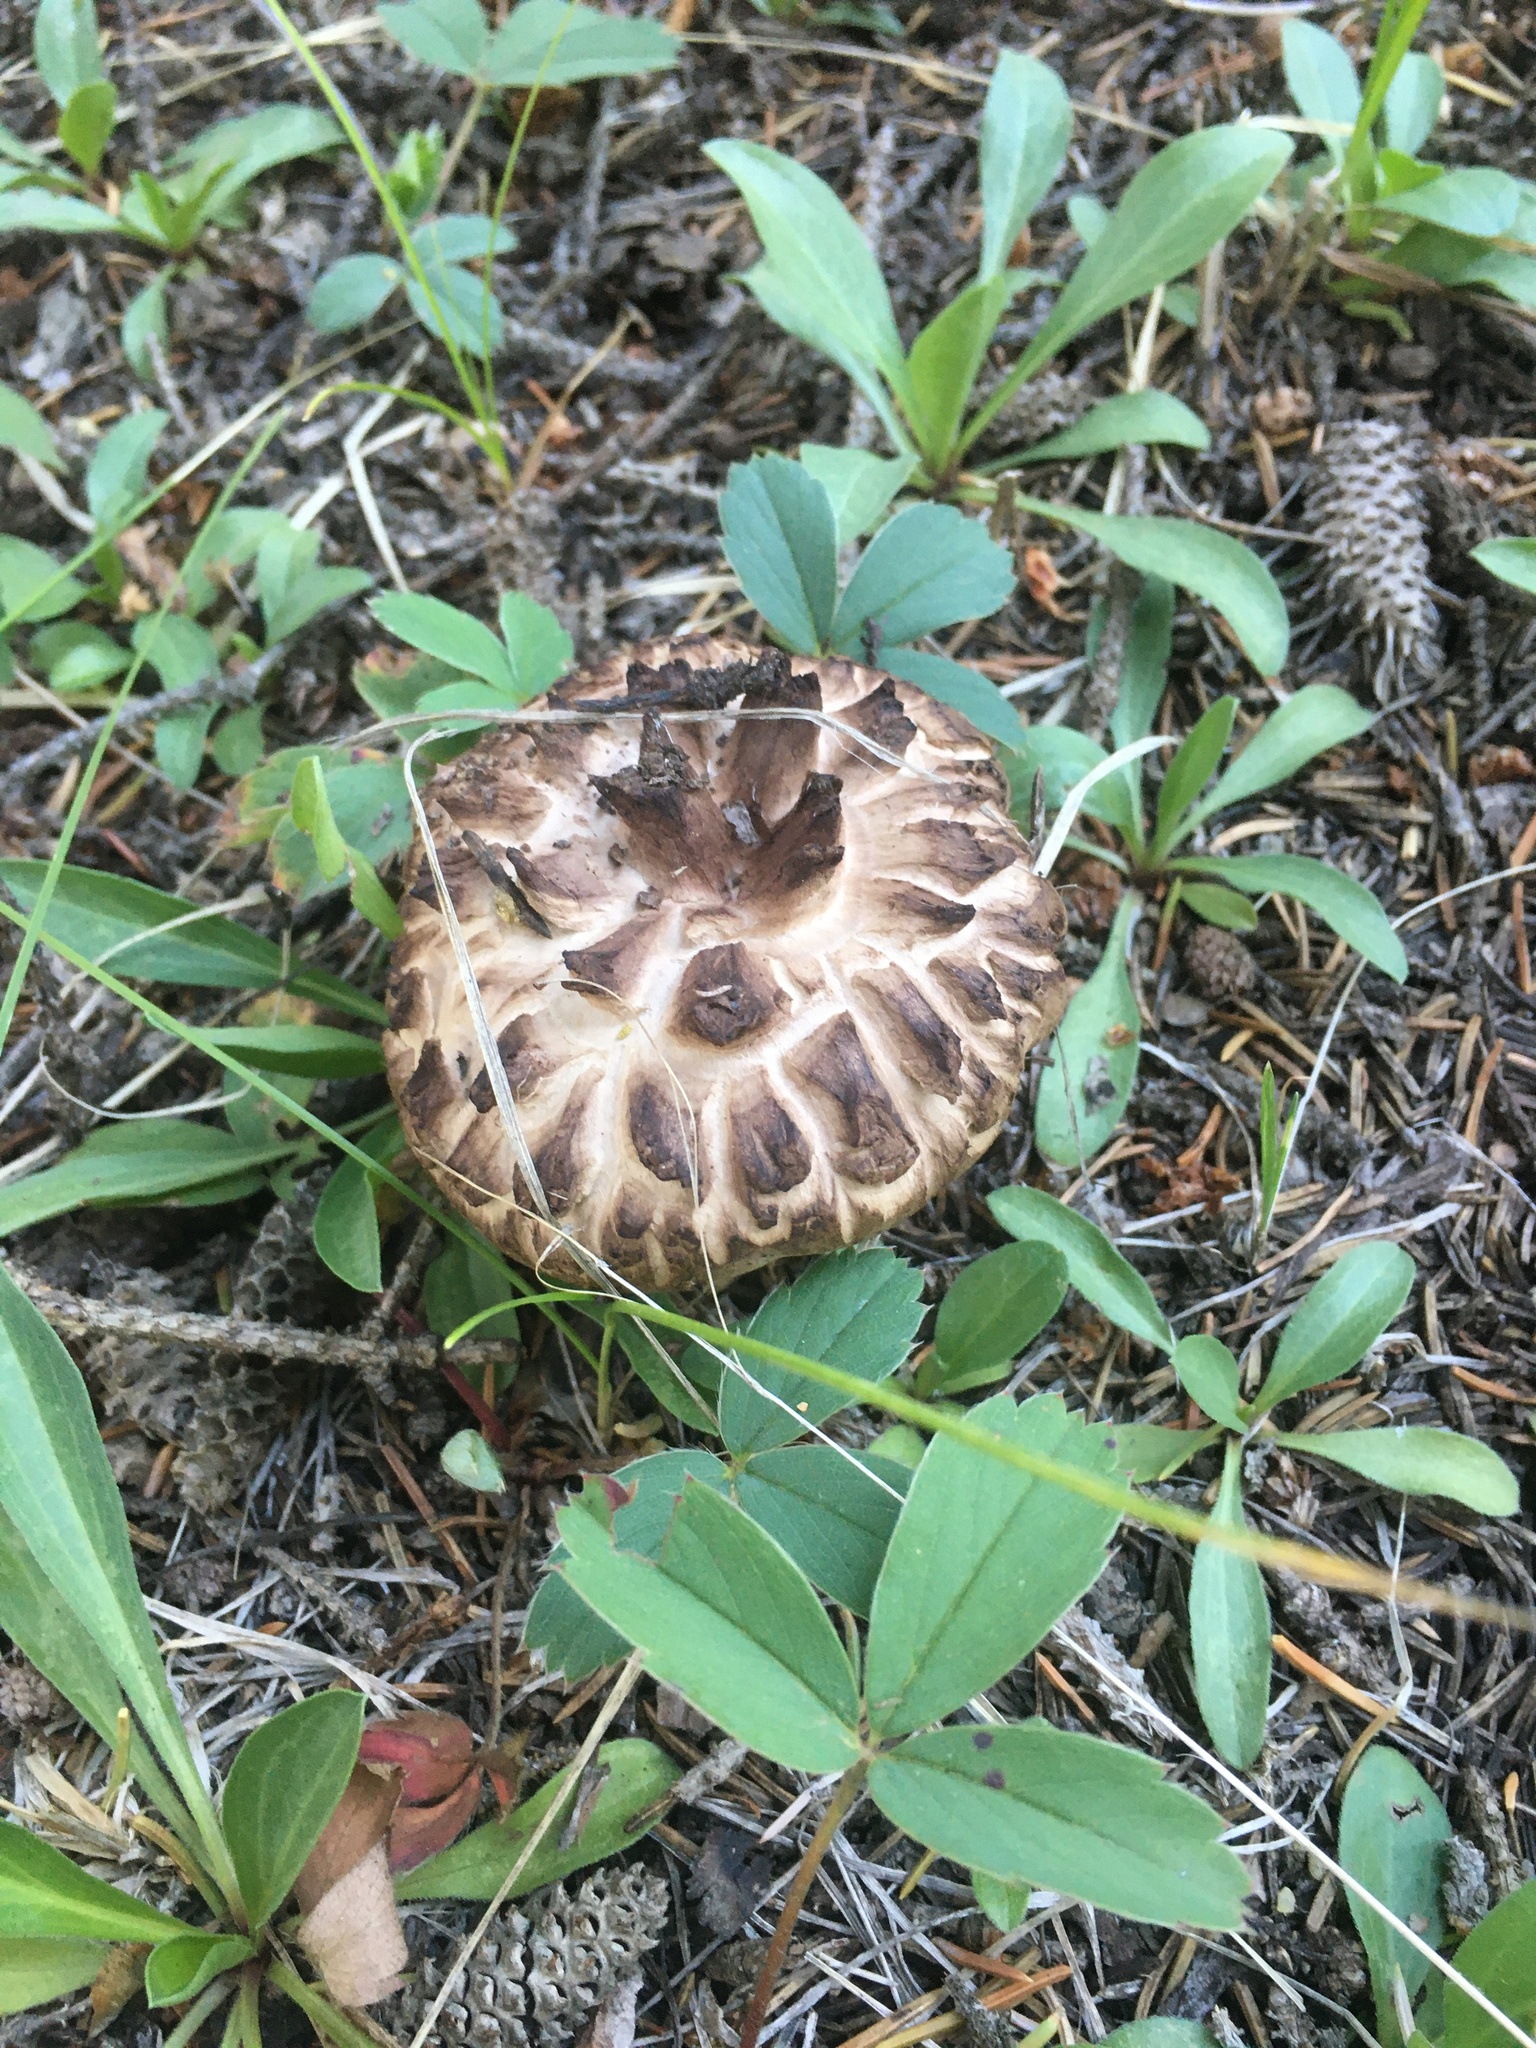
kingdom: Fungi
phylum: Basidiomycota
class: Agaricomycetes
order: Thelephorales
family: Bankeraceae
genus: Sarcodon
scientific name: Sarcodon imbricatus
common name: Shingled hedgehog
